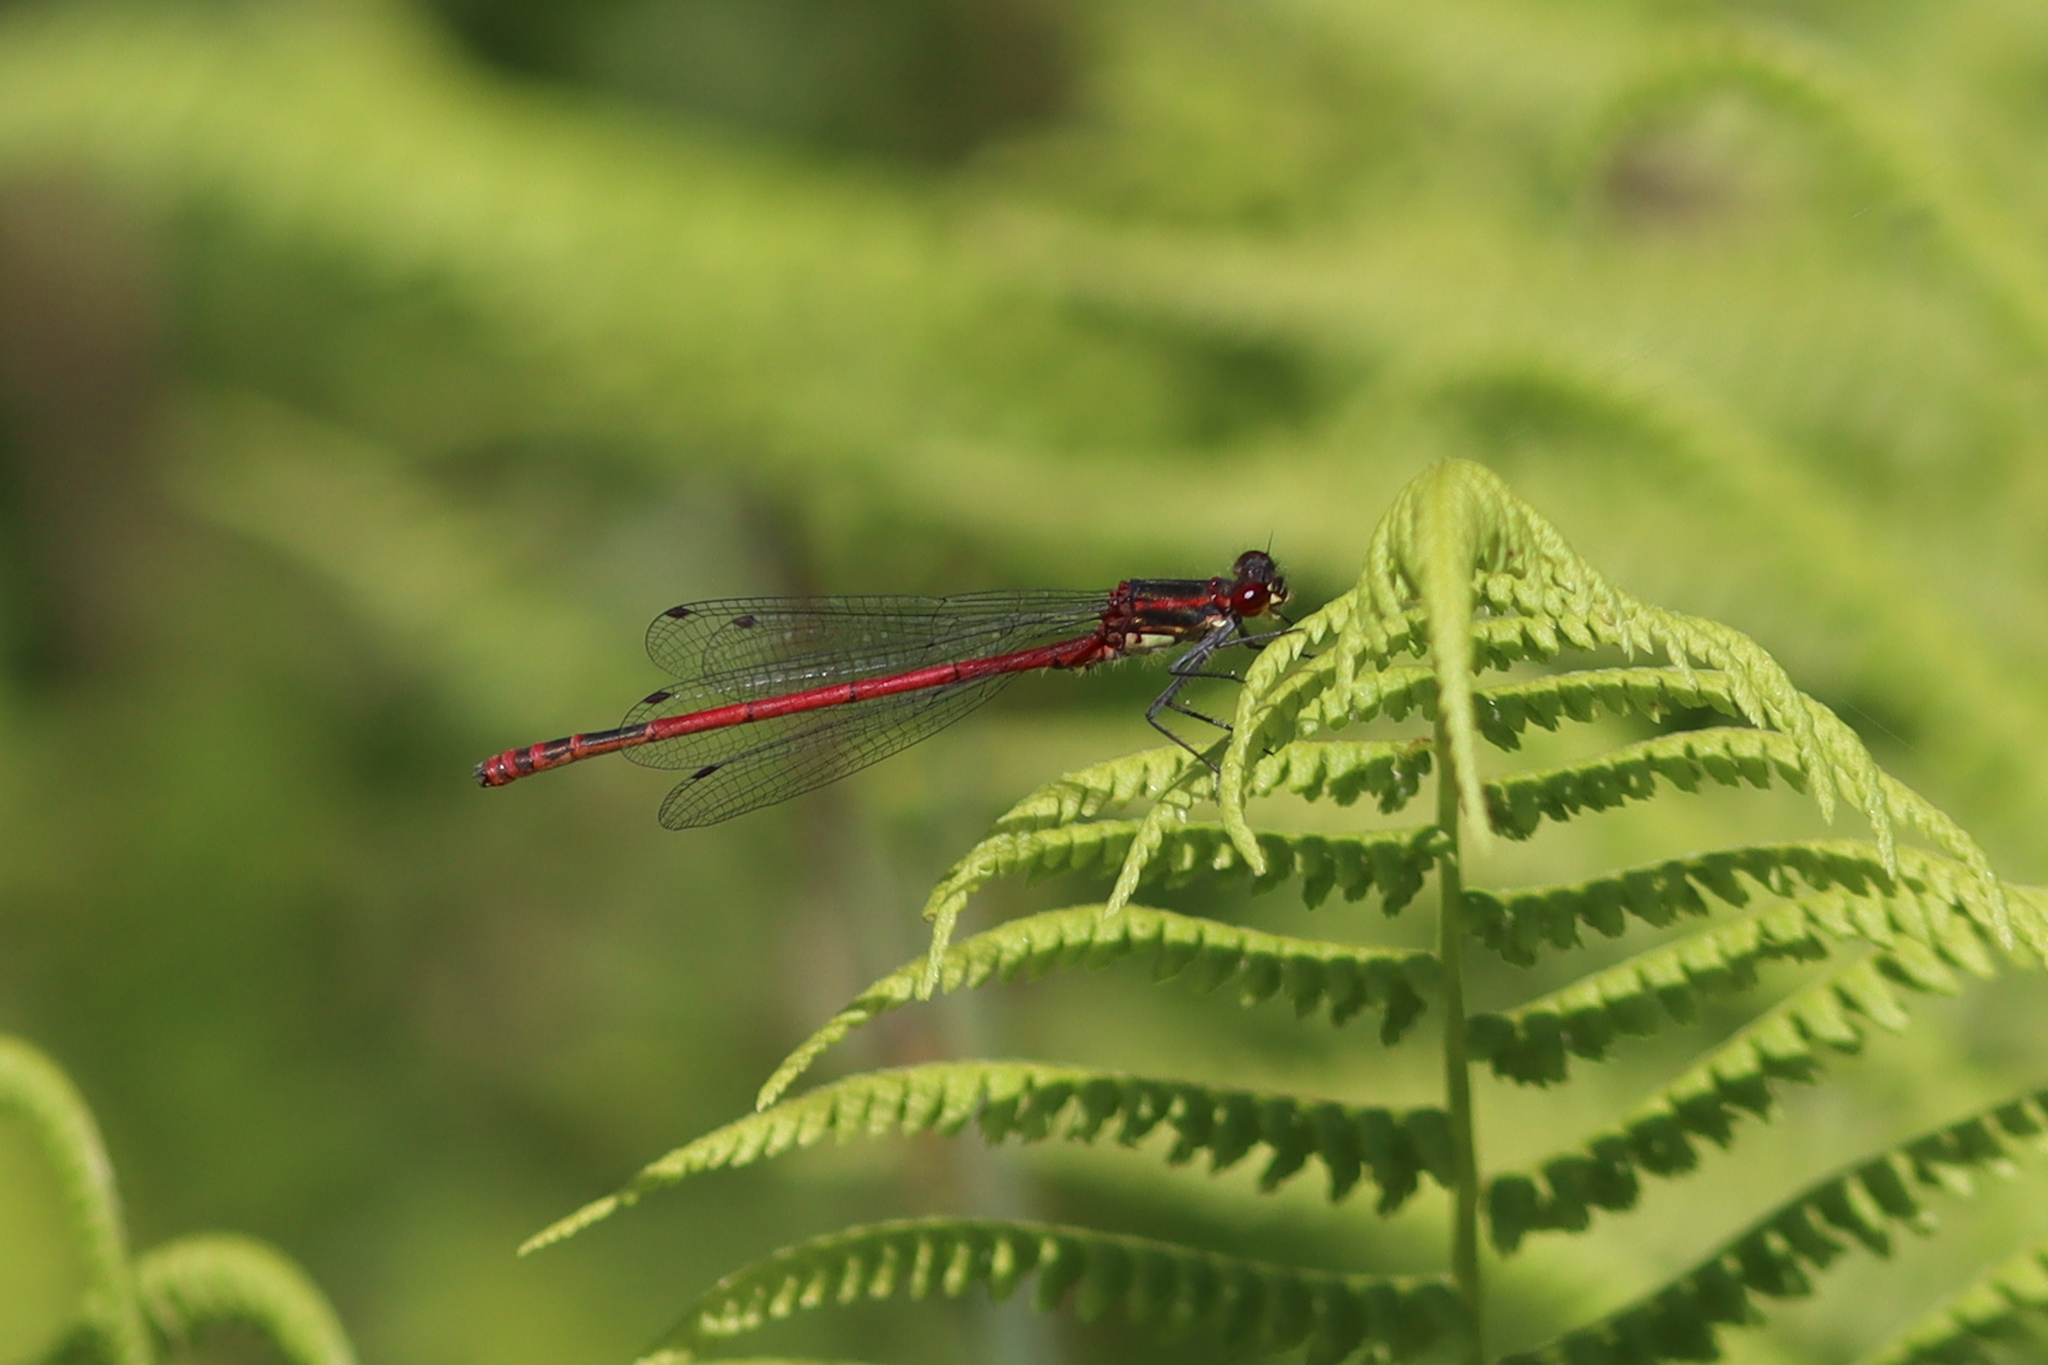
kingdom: Animalia
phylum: Arthropoda
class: Insecta
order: Odonata
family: Coenagrionidae
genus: Pyrrhosoma
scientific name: Pyrrhosoma nymphula
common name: Large red damsel
